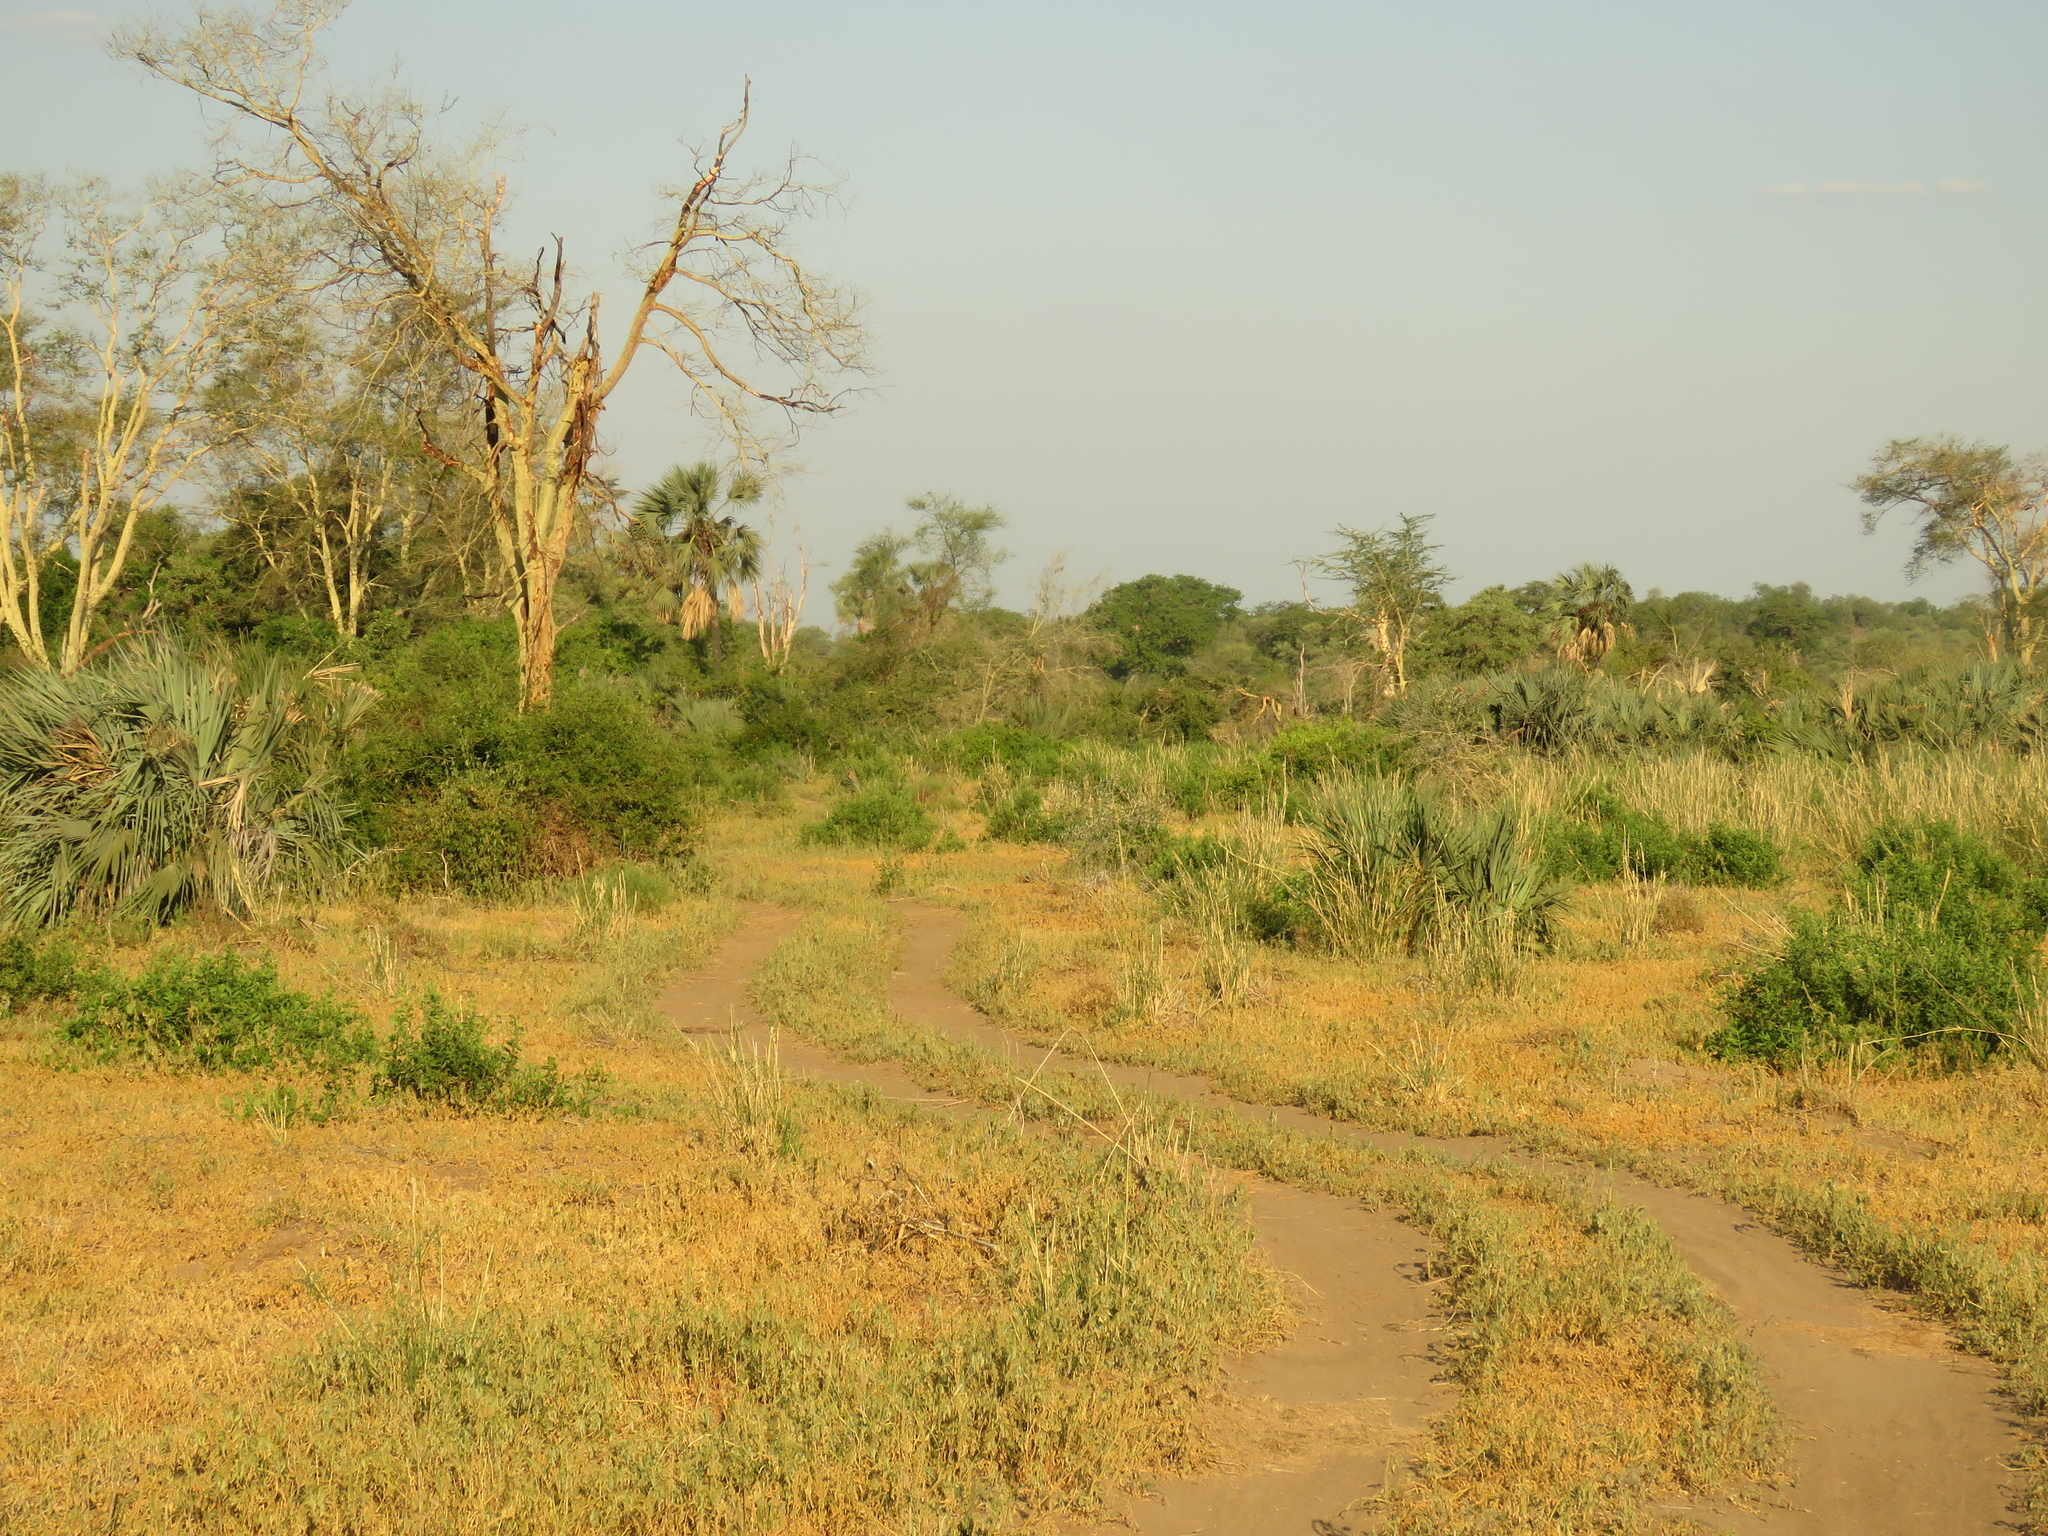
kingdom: Plantae
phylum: Tracheophyta
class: Magnoliopsida
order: Fabales
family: Fabaceae
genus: Vachellia
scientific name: Vachellia xanthophloea
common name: Fever tree
